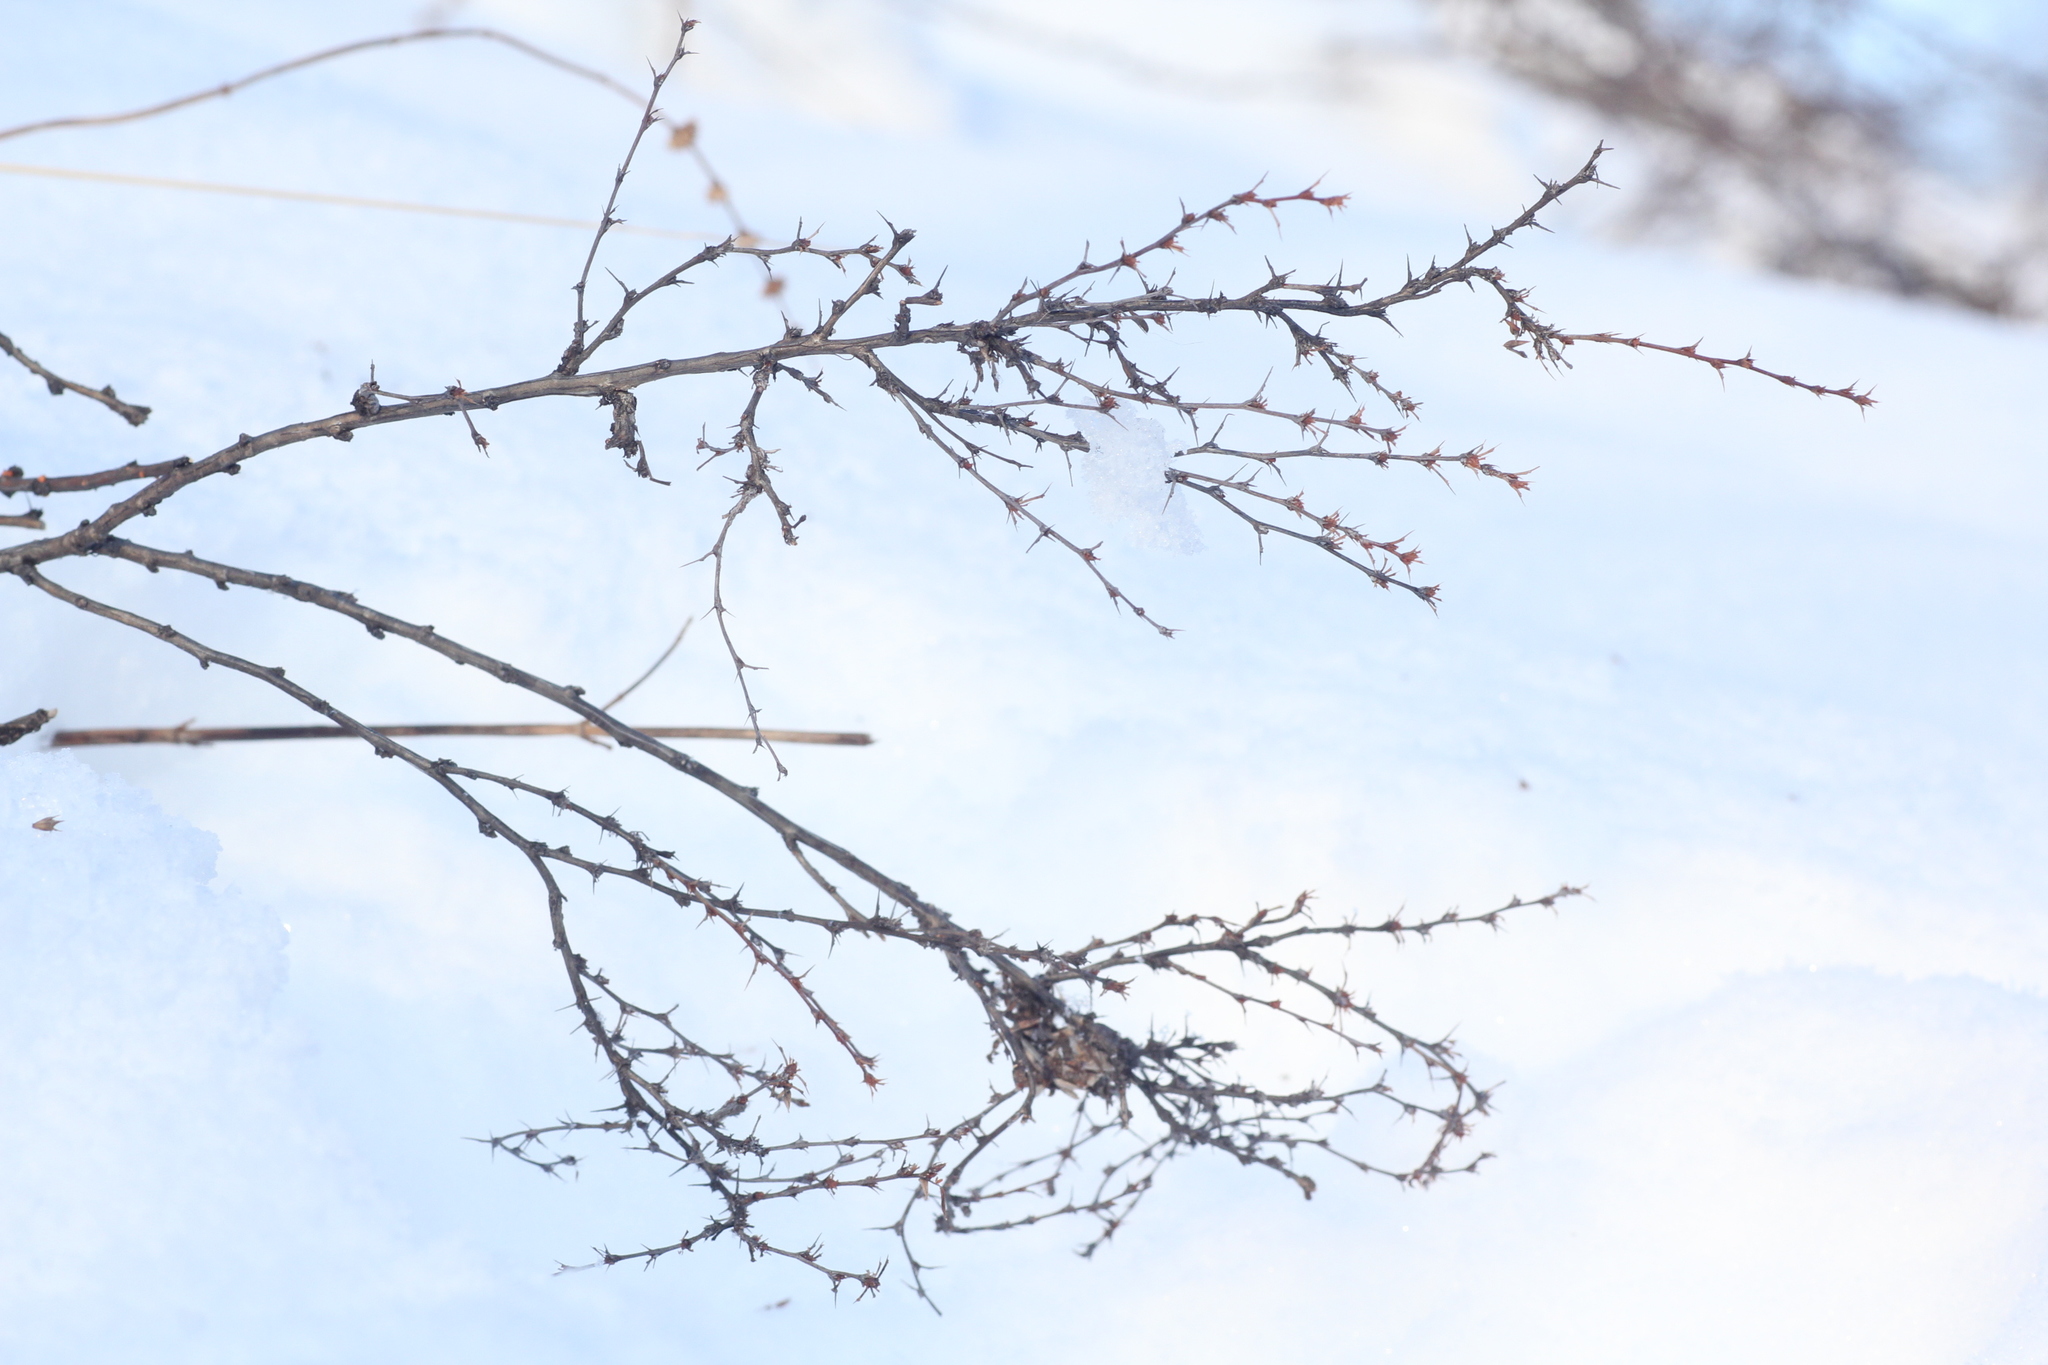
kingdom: Plantae
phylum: Tracheophyta
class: Magnoliopsida
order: Fabales
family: Fabaceae
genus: Caragana
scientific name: Caragana pygmaea
